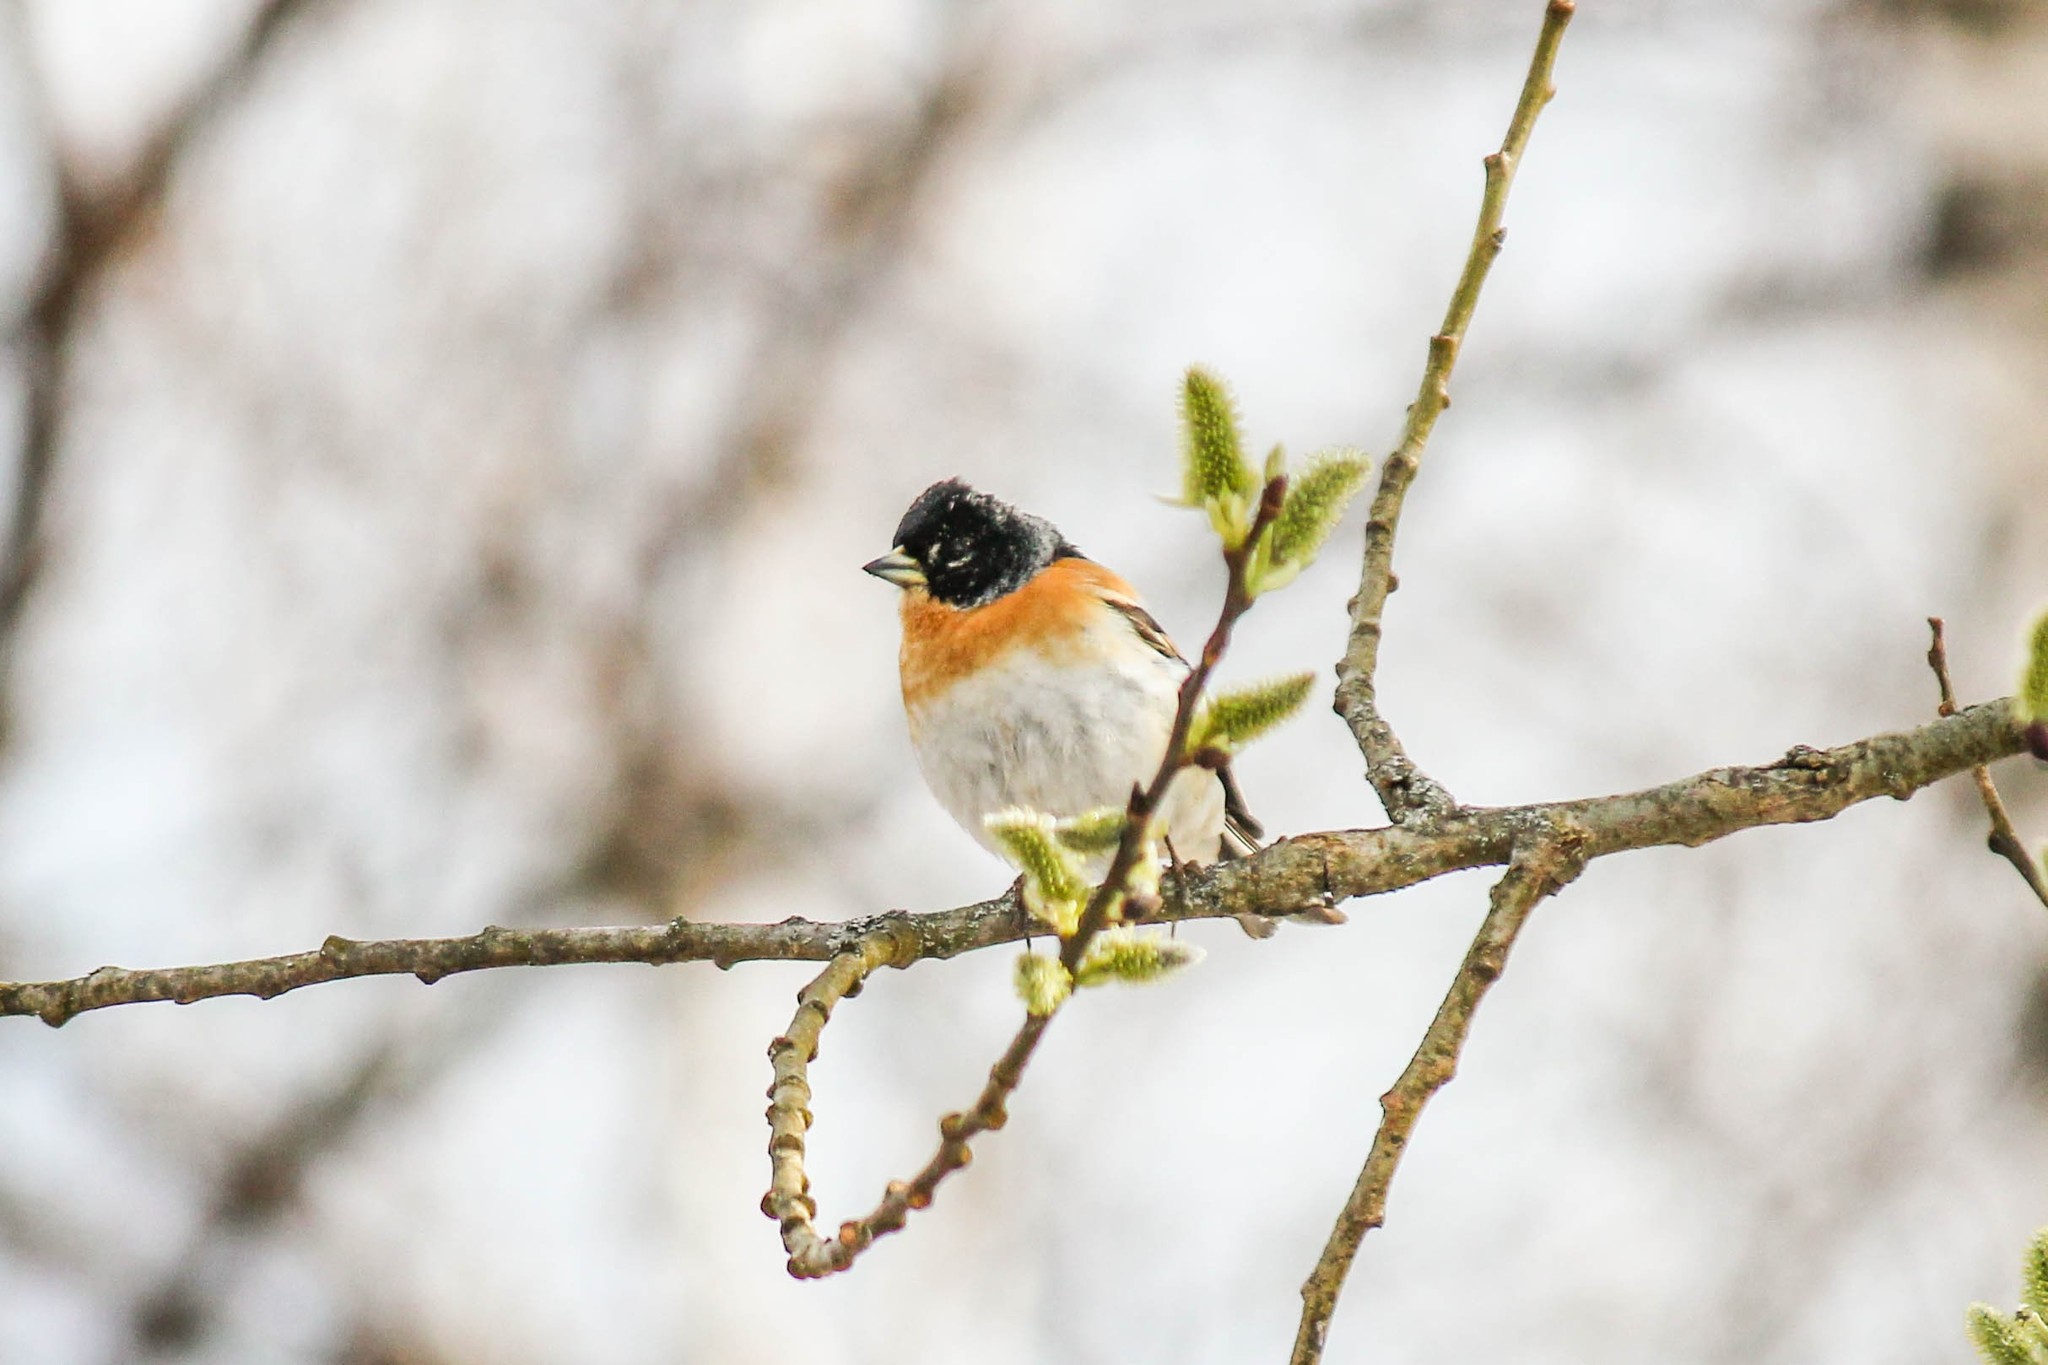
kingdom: Animalia
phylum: Chordata
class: Aves
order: Passeriformes
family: Fringillidae
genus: Fringilla
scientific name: Fringilla montifringilla
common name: Brambling
